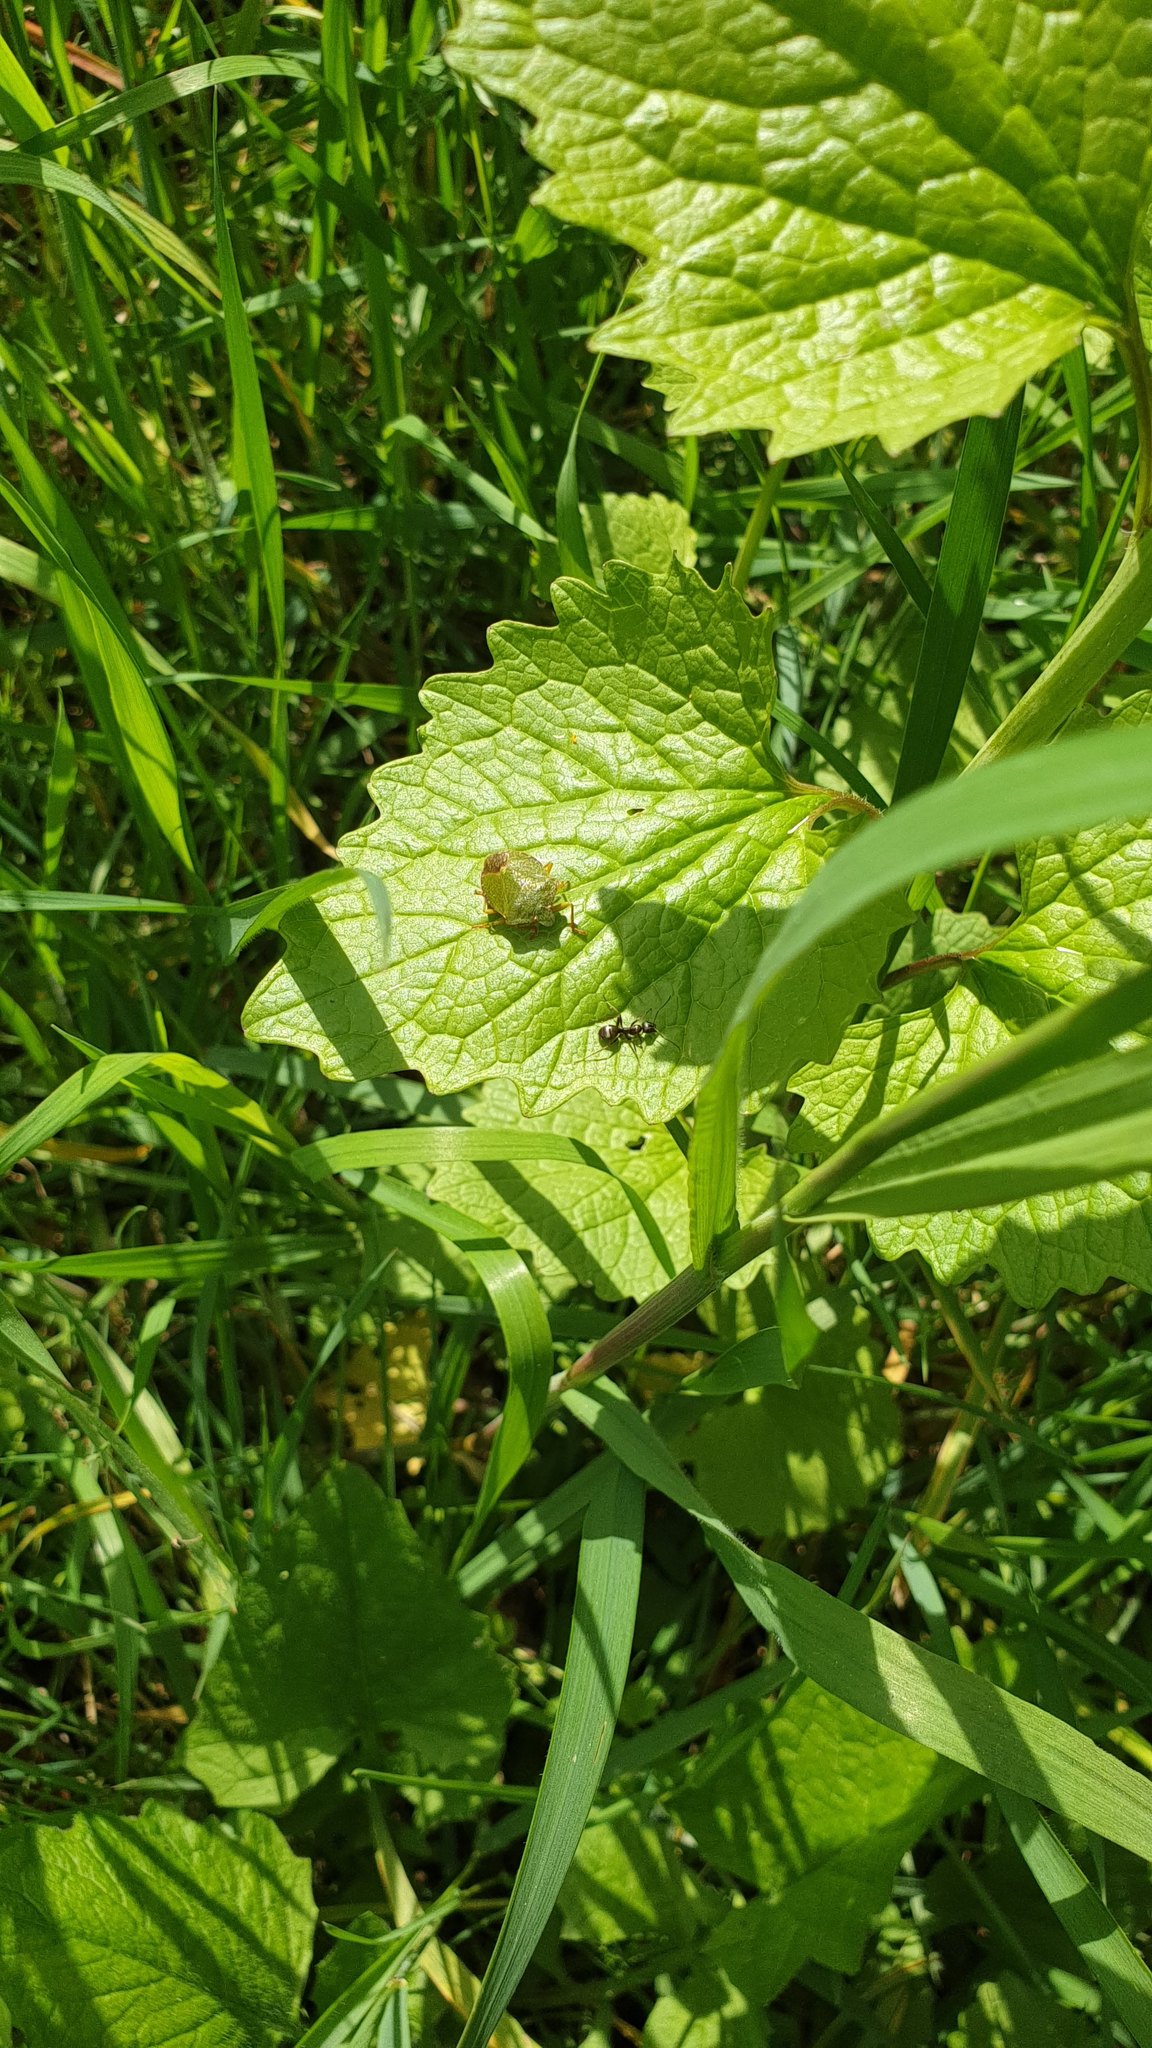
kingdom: Animalia
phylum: Arthropoda
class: Insecta
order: Hemiptera
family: Pentatomidae
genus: Palomena
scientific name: Palomena prasina
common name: Green shieldbug
